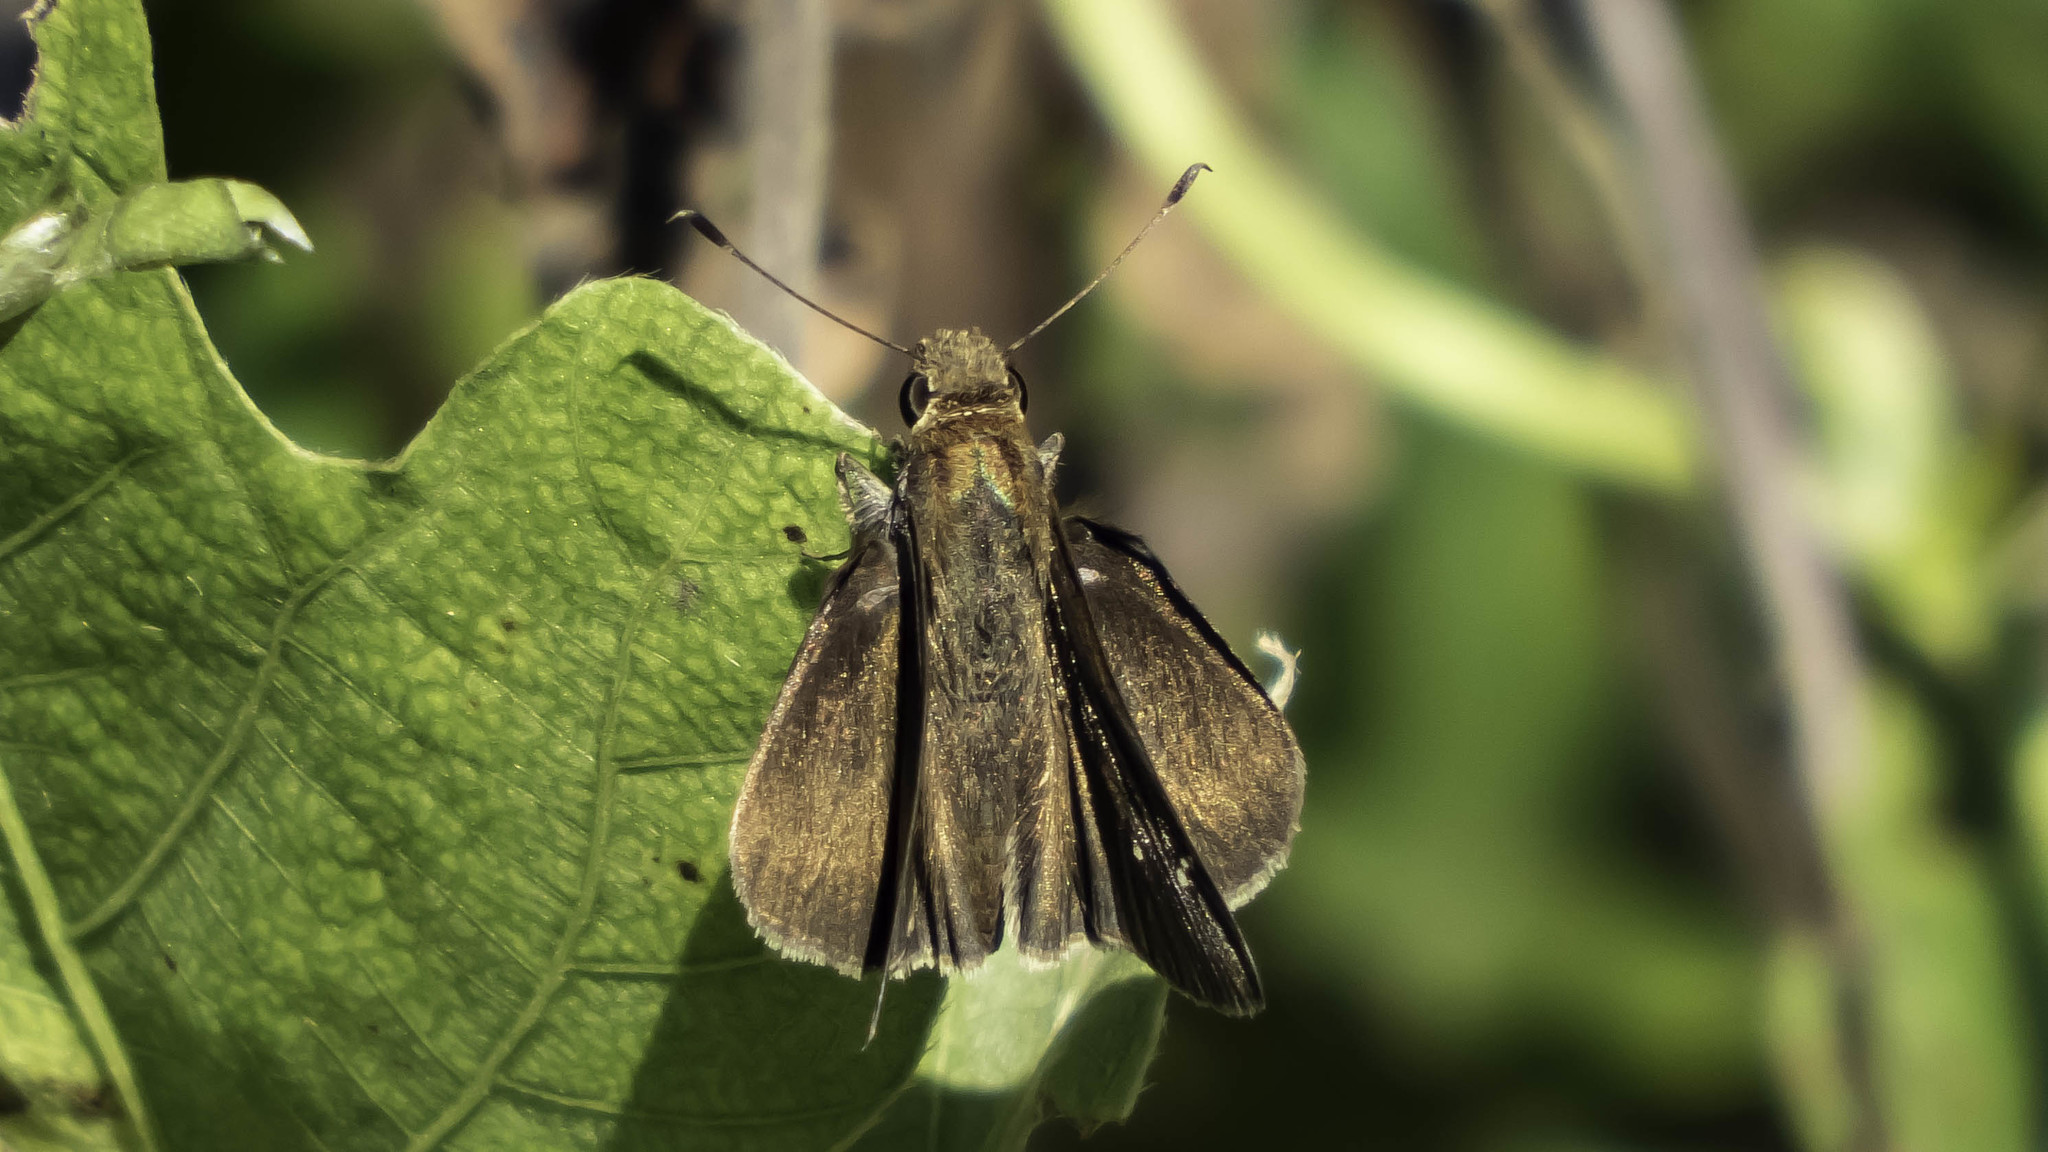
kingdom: Animalia
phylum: Arthropoda
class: Insecta
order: Lepidoptera
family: Hesperiidae
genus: Lerema
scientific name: Lerema accius
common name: Clouded skipper
